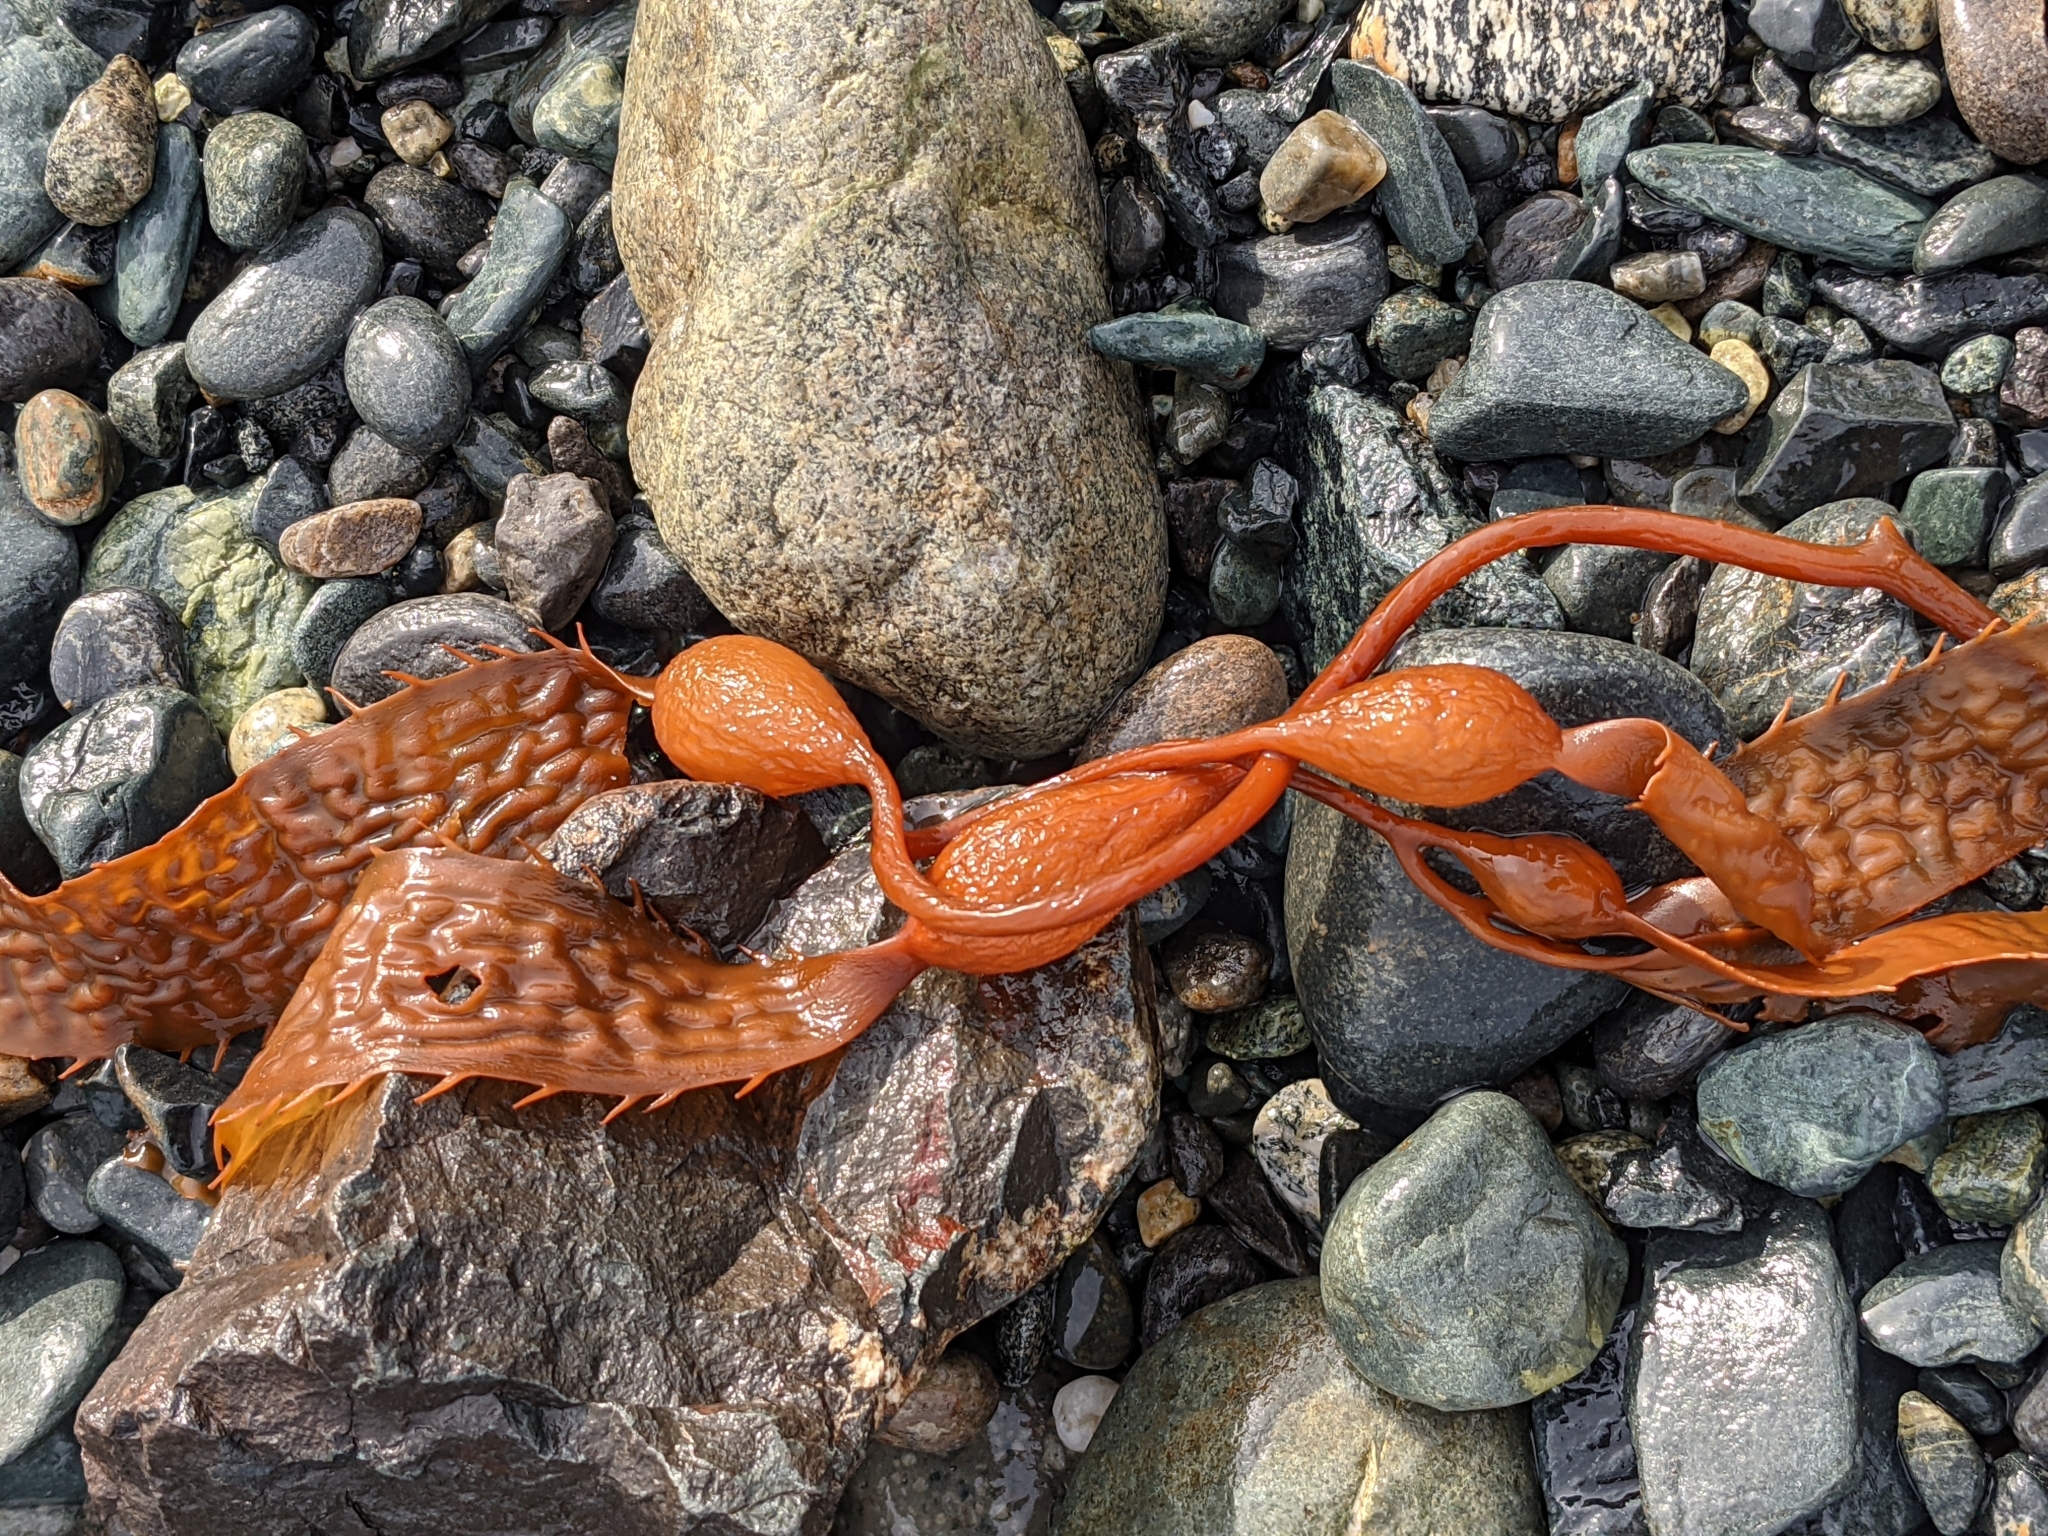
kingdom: Chromista
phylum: Ochrophyta
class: Phaeophyceae
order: Laminariales
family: Laminariaceae
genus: Macrocystis
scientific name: Macrocystis pyrifera
